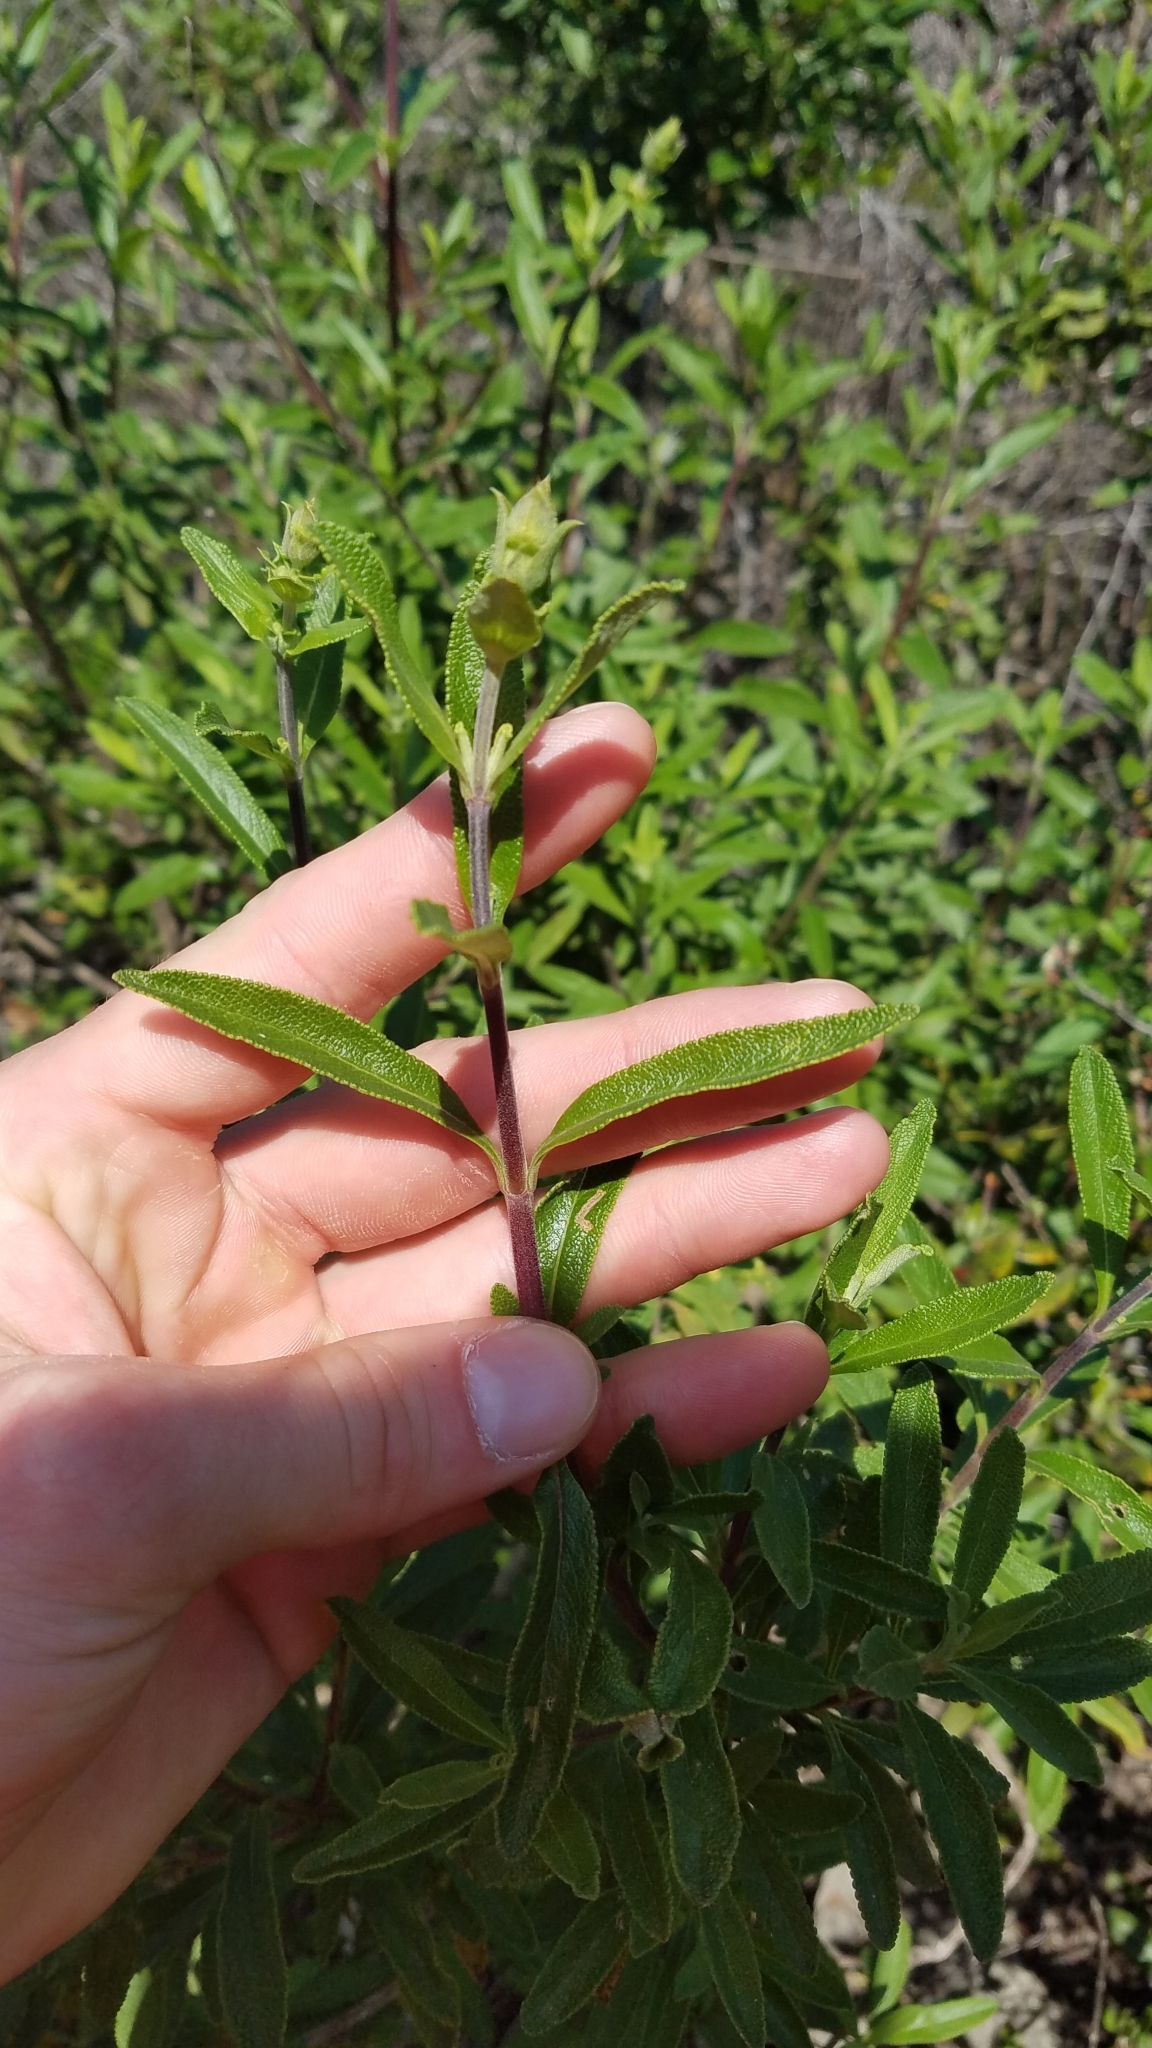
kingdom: Plantae
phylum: Tracheophyta
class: Magnoliopsida
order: Lamiales
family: Lamiaceae
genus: Salvia
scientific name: Salvia mellifera
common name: Black sage
